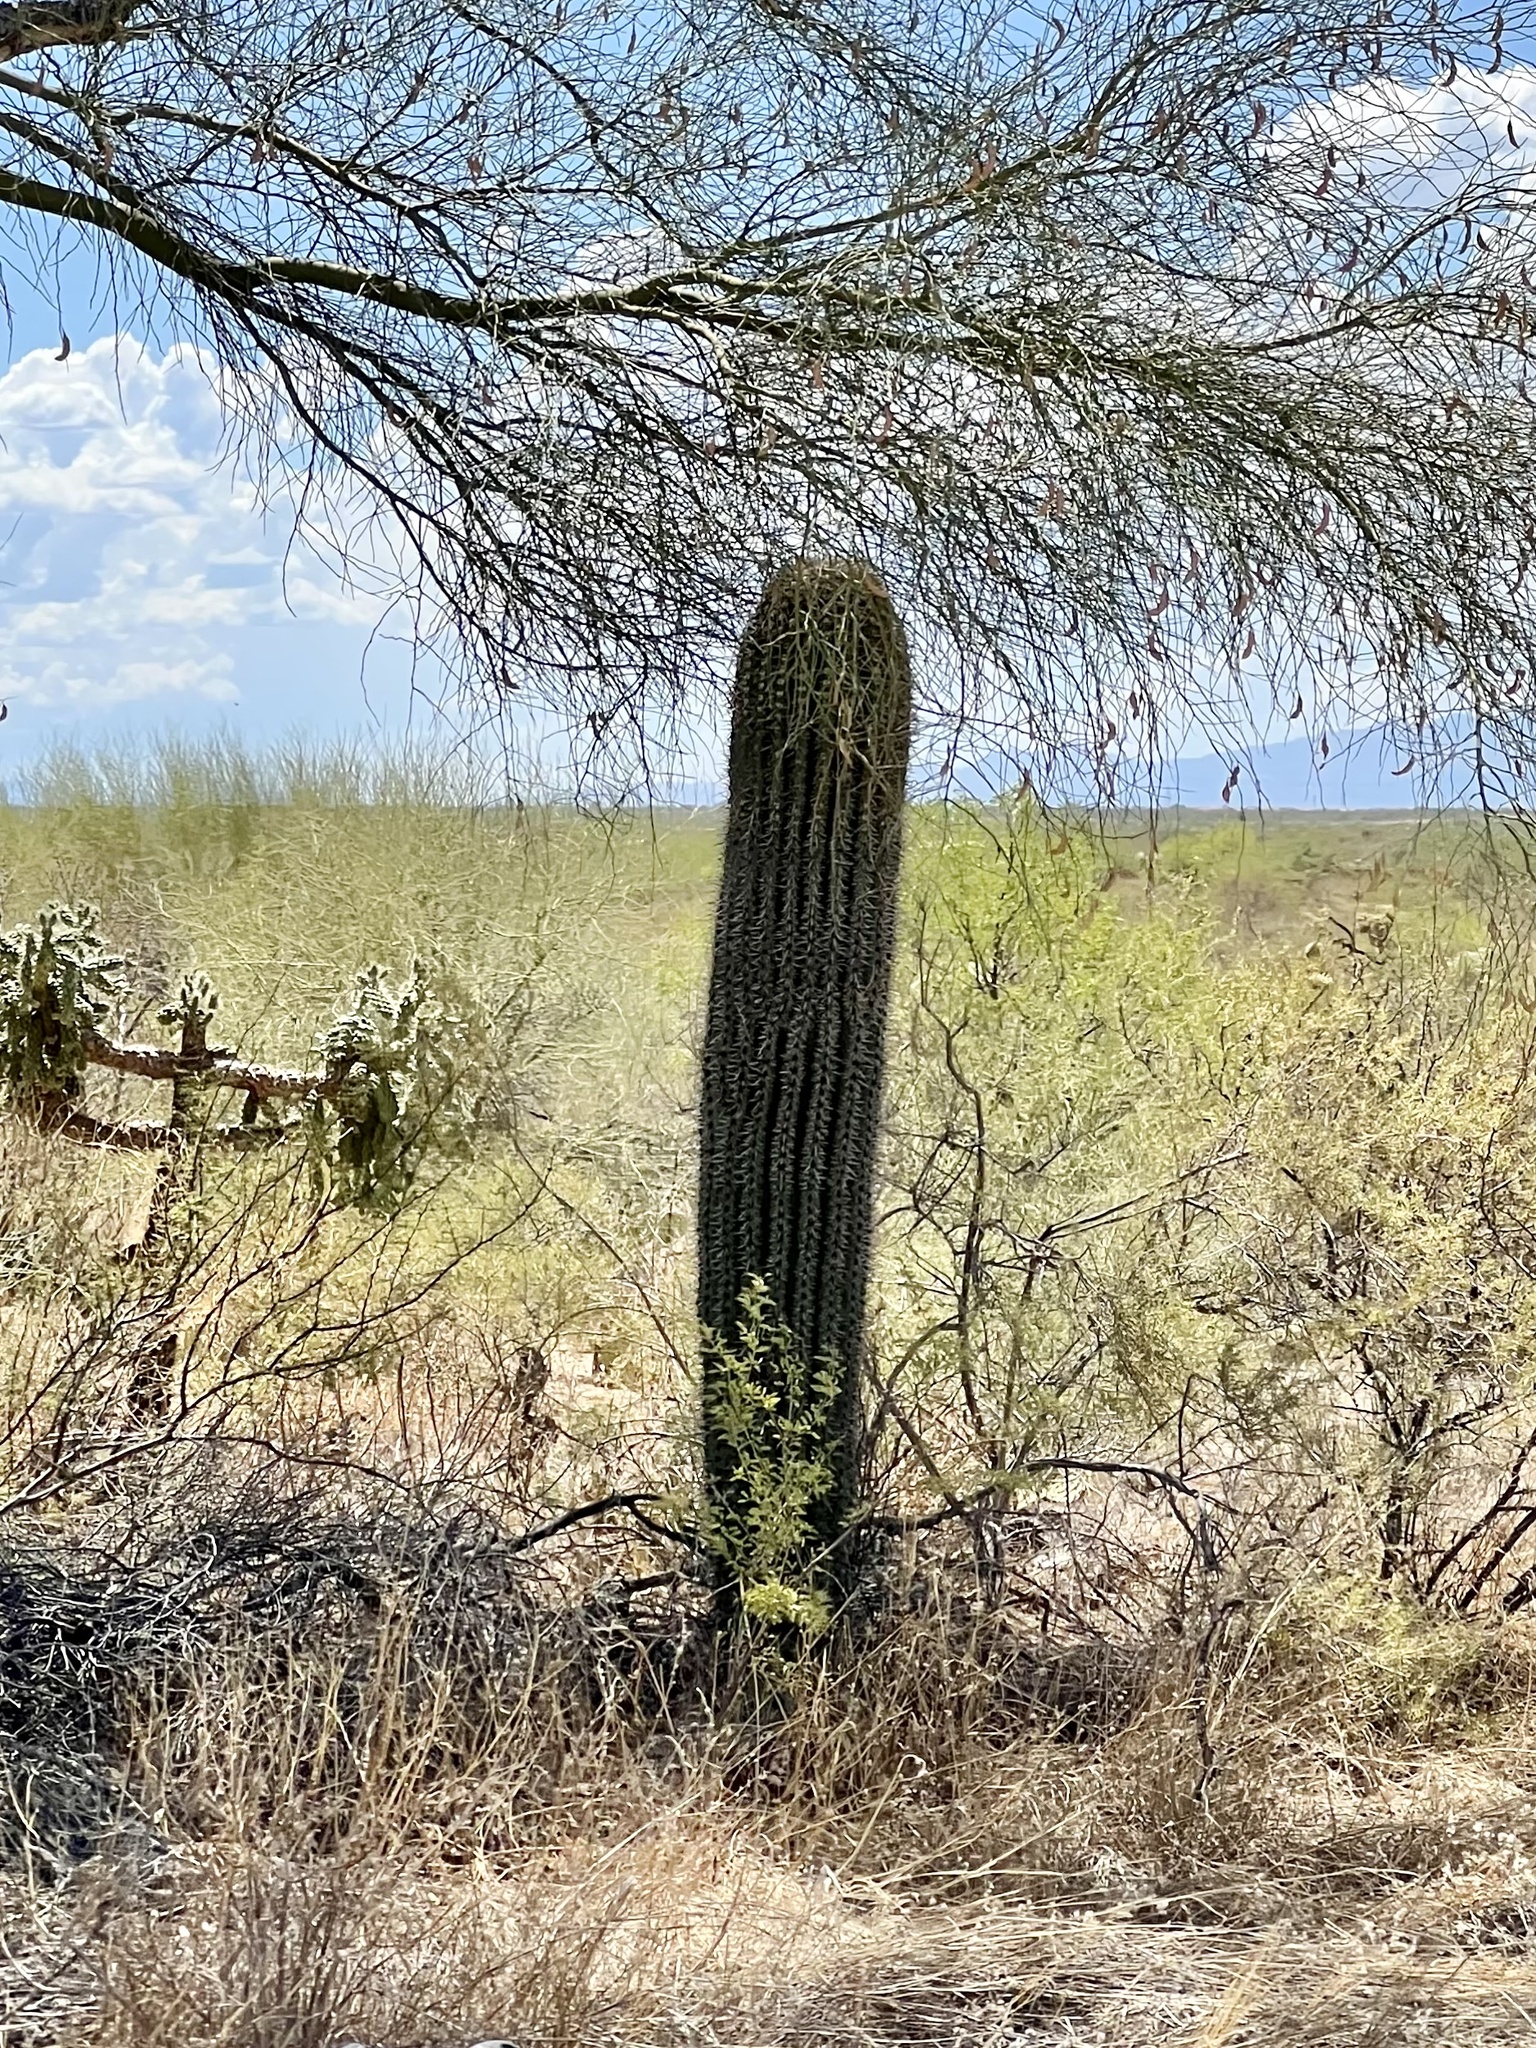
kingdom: Plantae
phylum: Tracheophyta
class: Magnoliopsida
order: Caryophyllales
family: Cactaceae
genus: Carnegiea
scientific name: Carnegiea gigantea
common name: Saguaro
